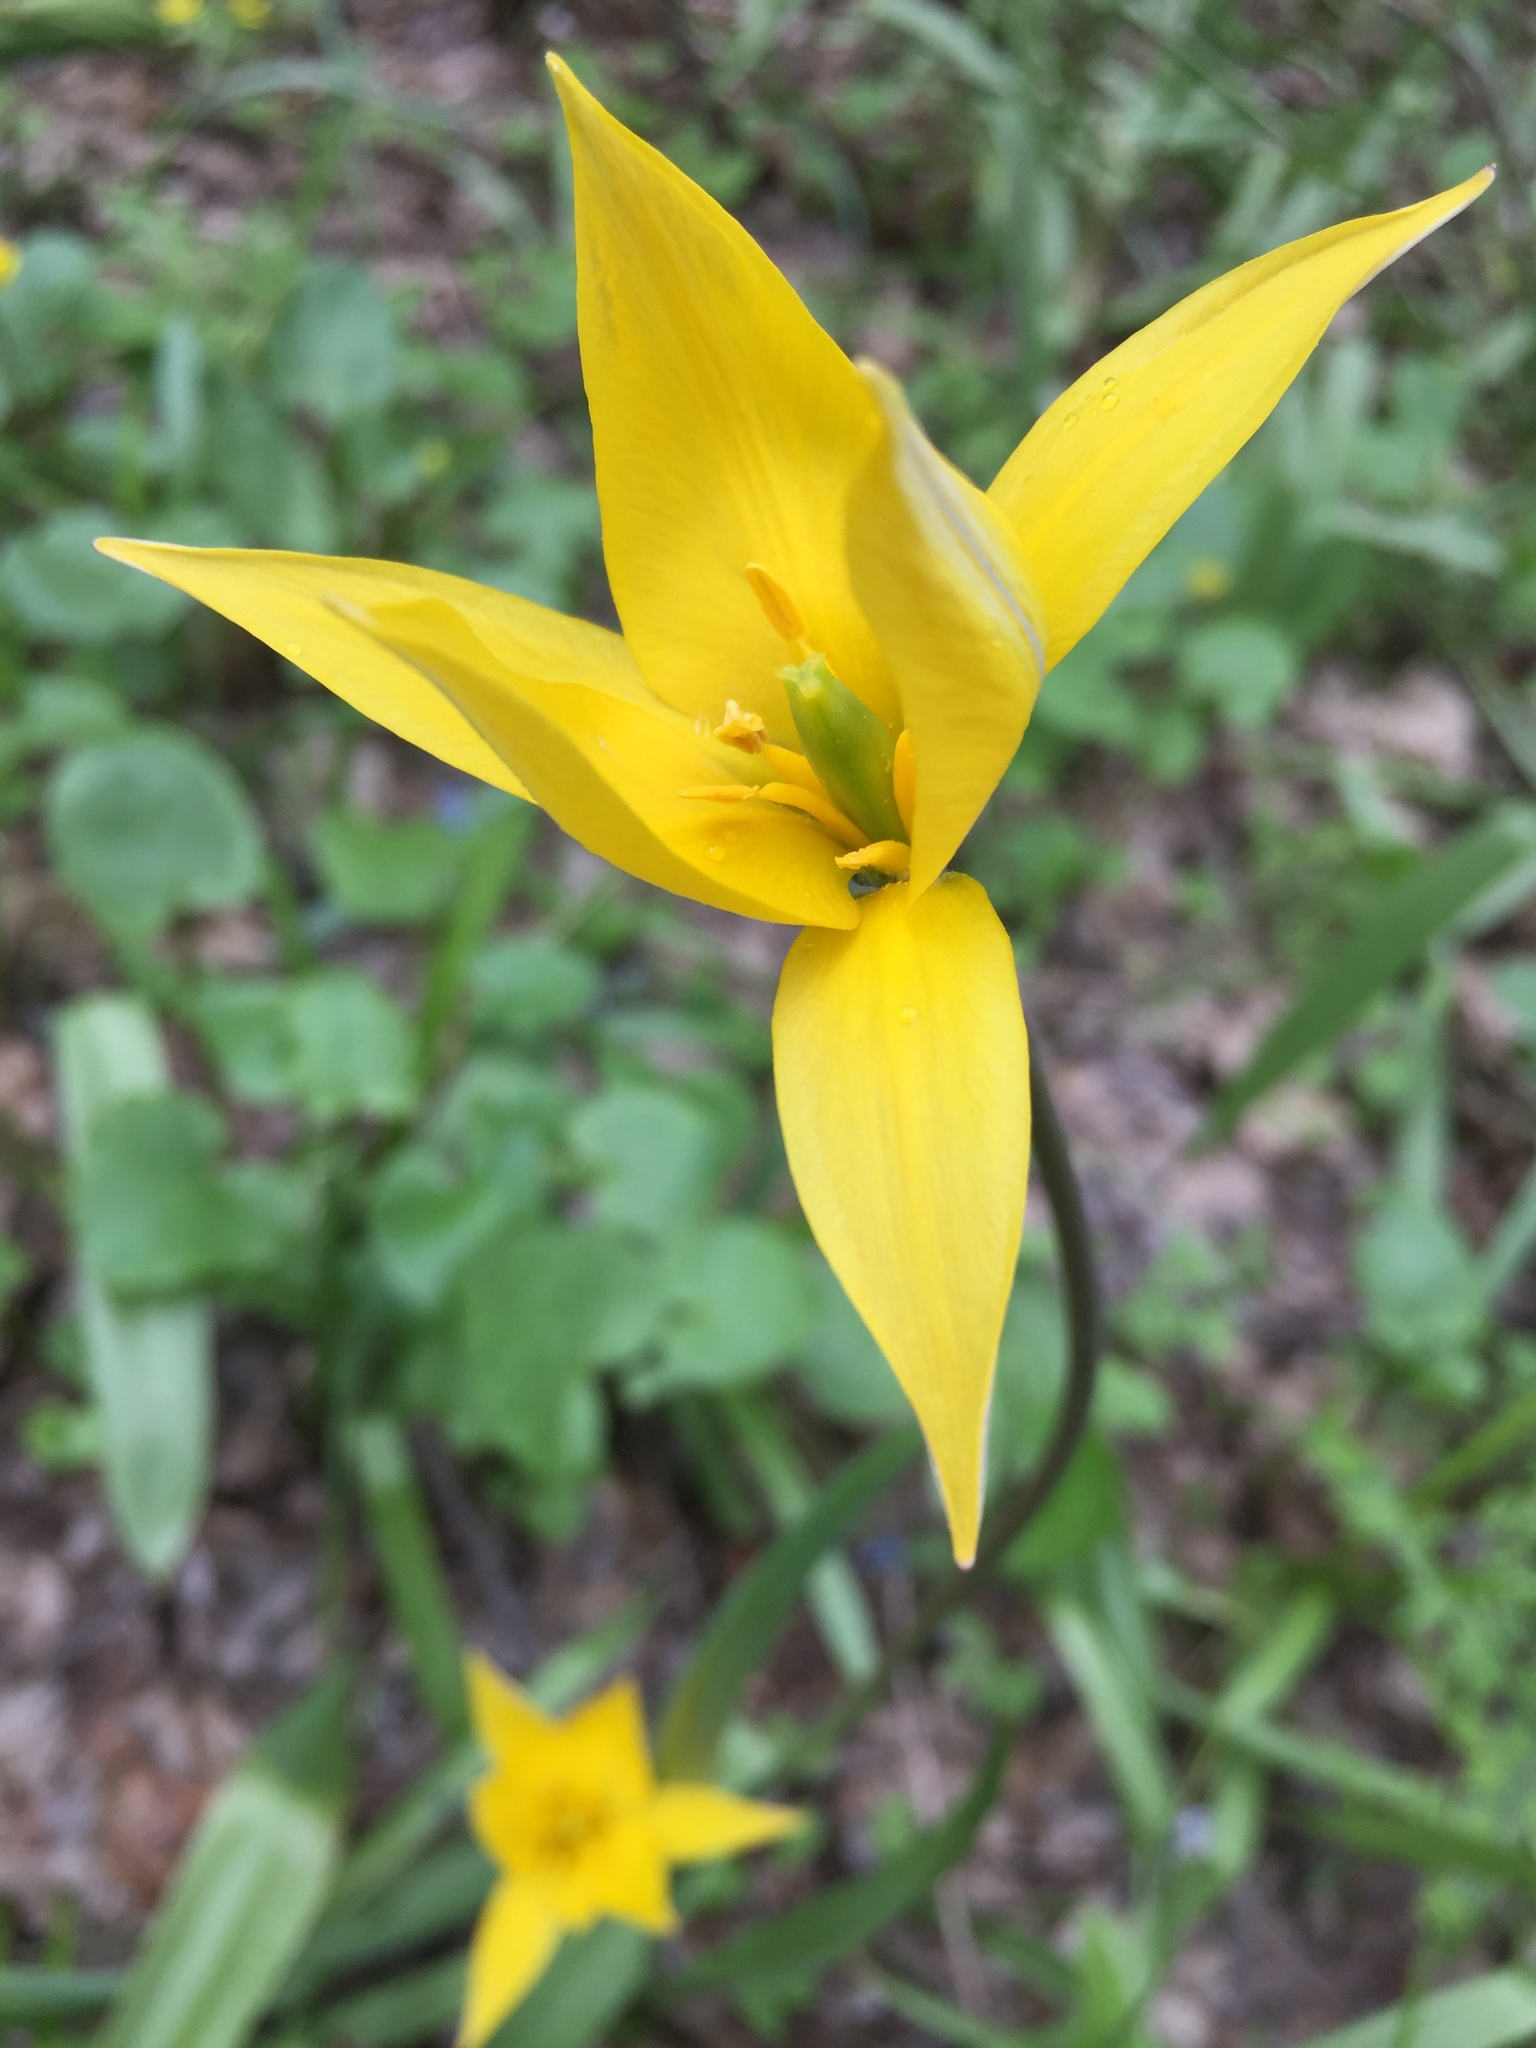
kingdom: Plantae
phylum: Tracheophyta
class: Liliopsida
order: Liliales
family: Liliaceae
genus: Tulipa
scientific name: Tulipa sylvestris
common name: Wild tulip
